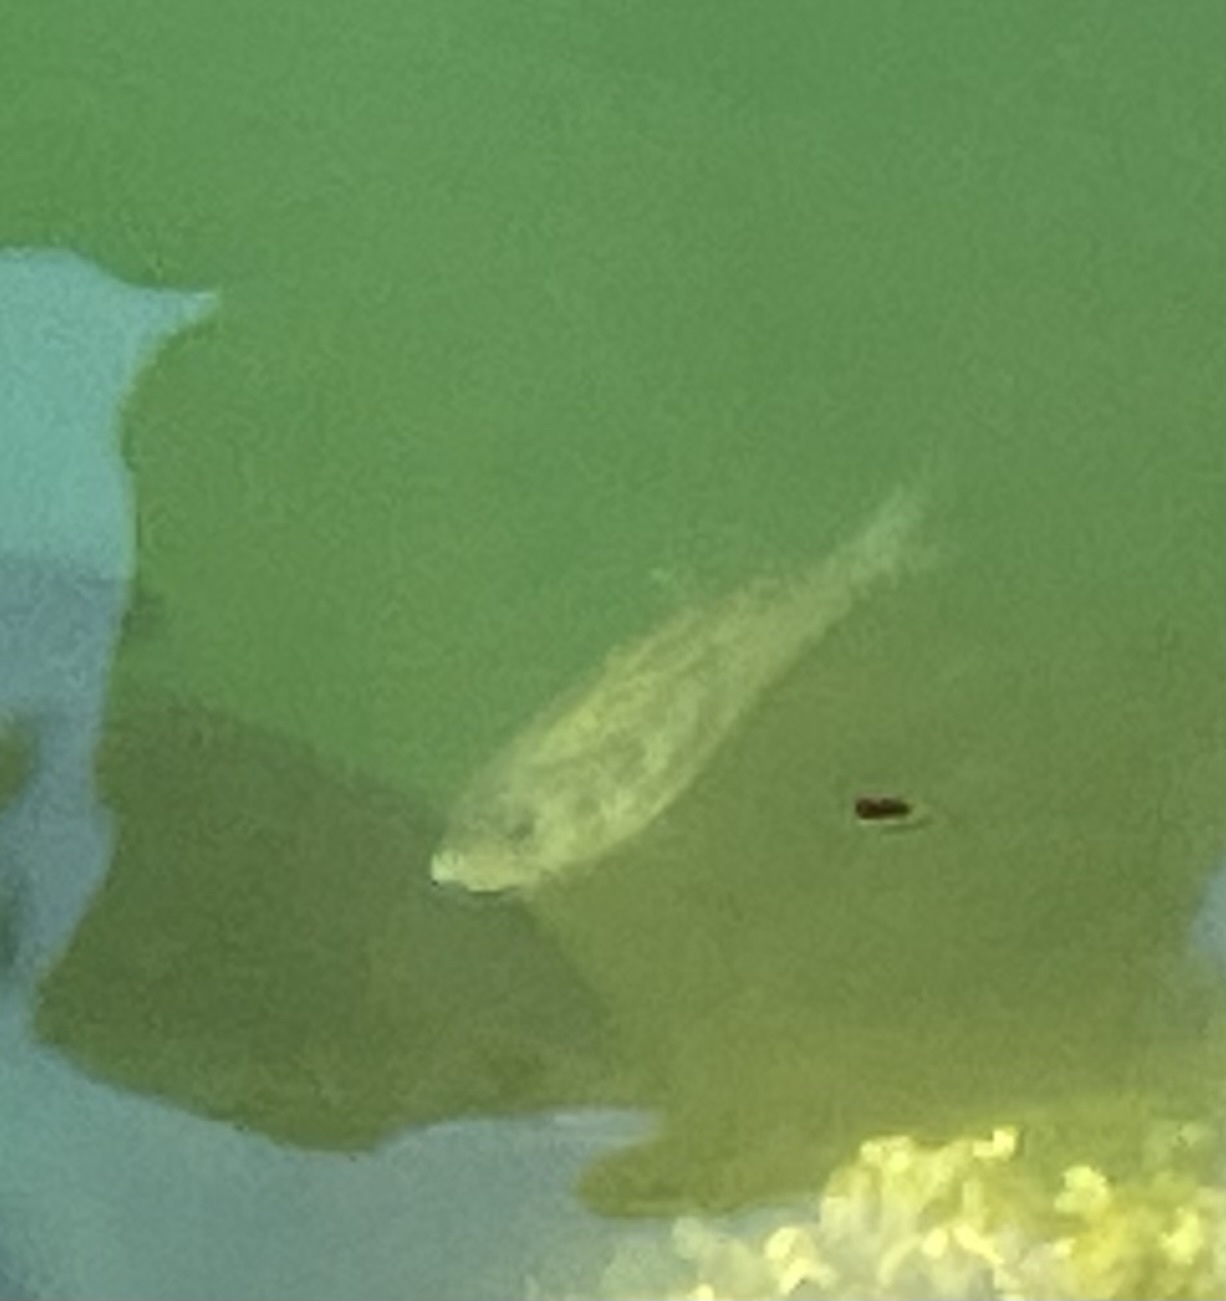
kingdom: Animalia
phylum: Chordata
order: Perciformes
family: Embiotocidae
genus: Cymatogaster
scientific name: Cymatogaster aggregata
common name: Shiner perch
